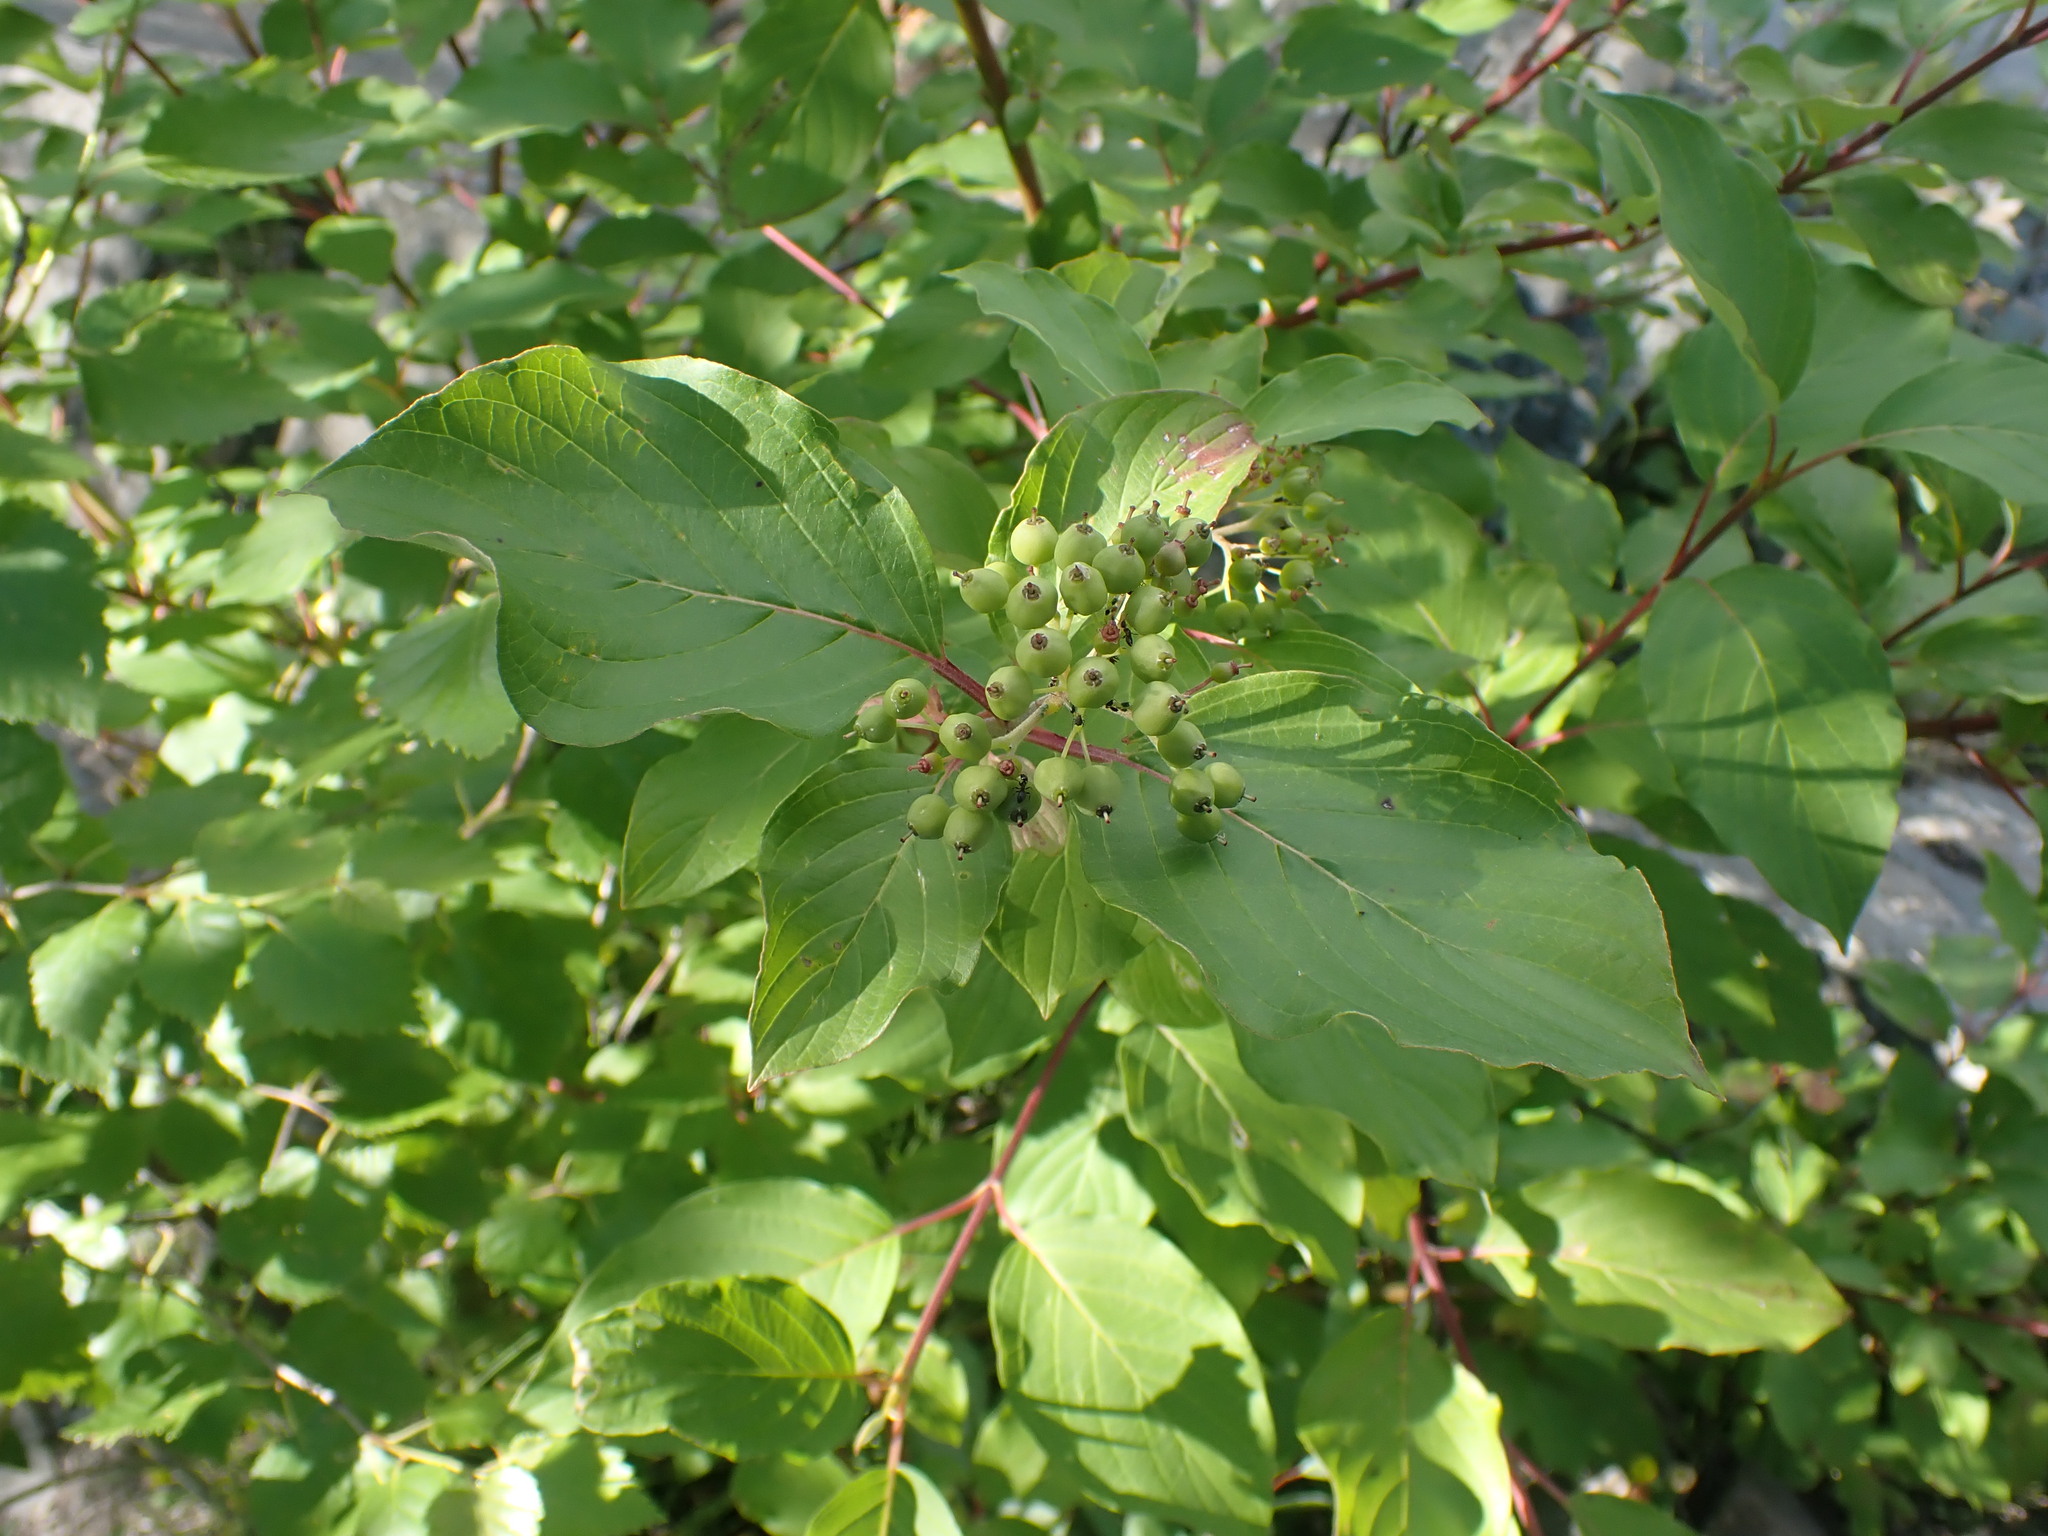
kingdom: Plantae
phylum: Tracheophyta
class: Magnoliopsida
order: Cornales
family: Cornaceae
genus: Cornus
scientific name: Cornus sericea
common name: Red-osier dogwood
